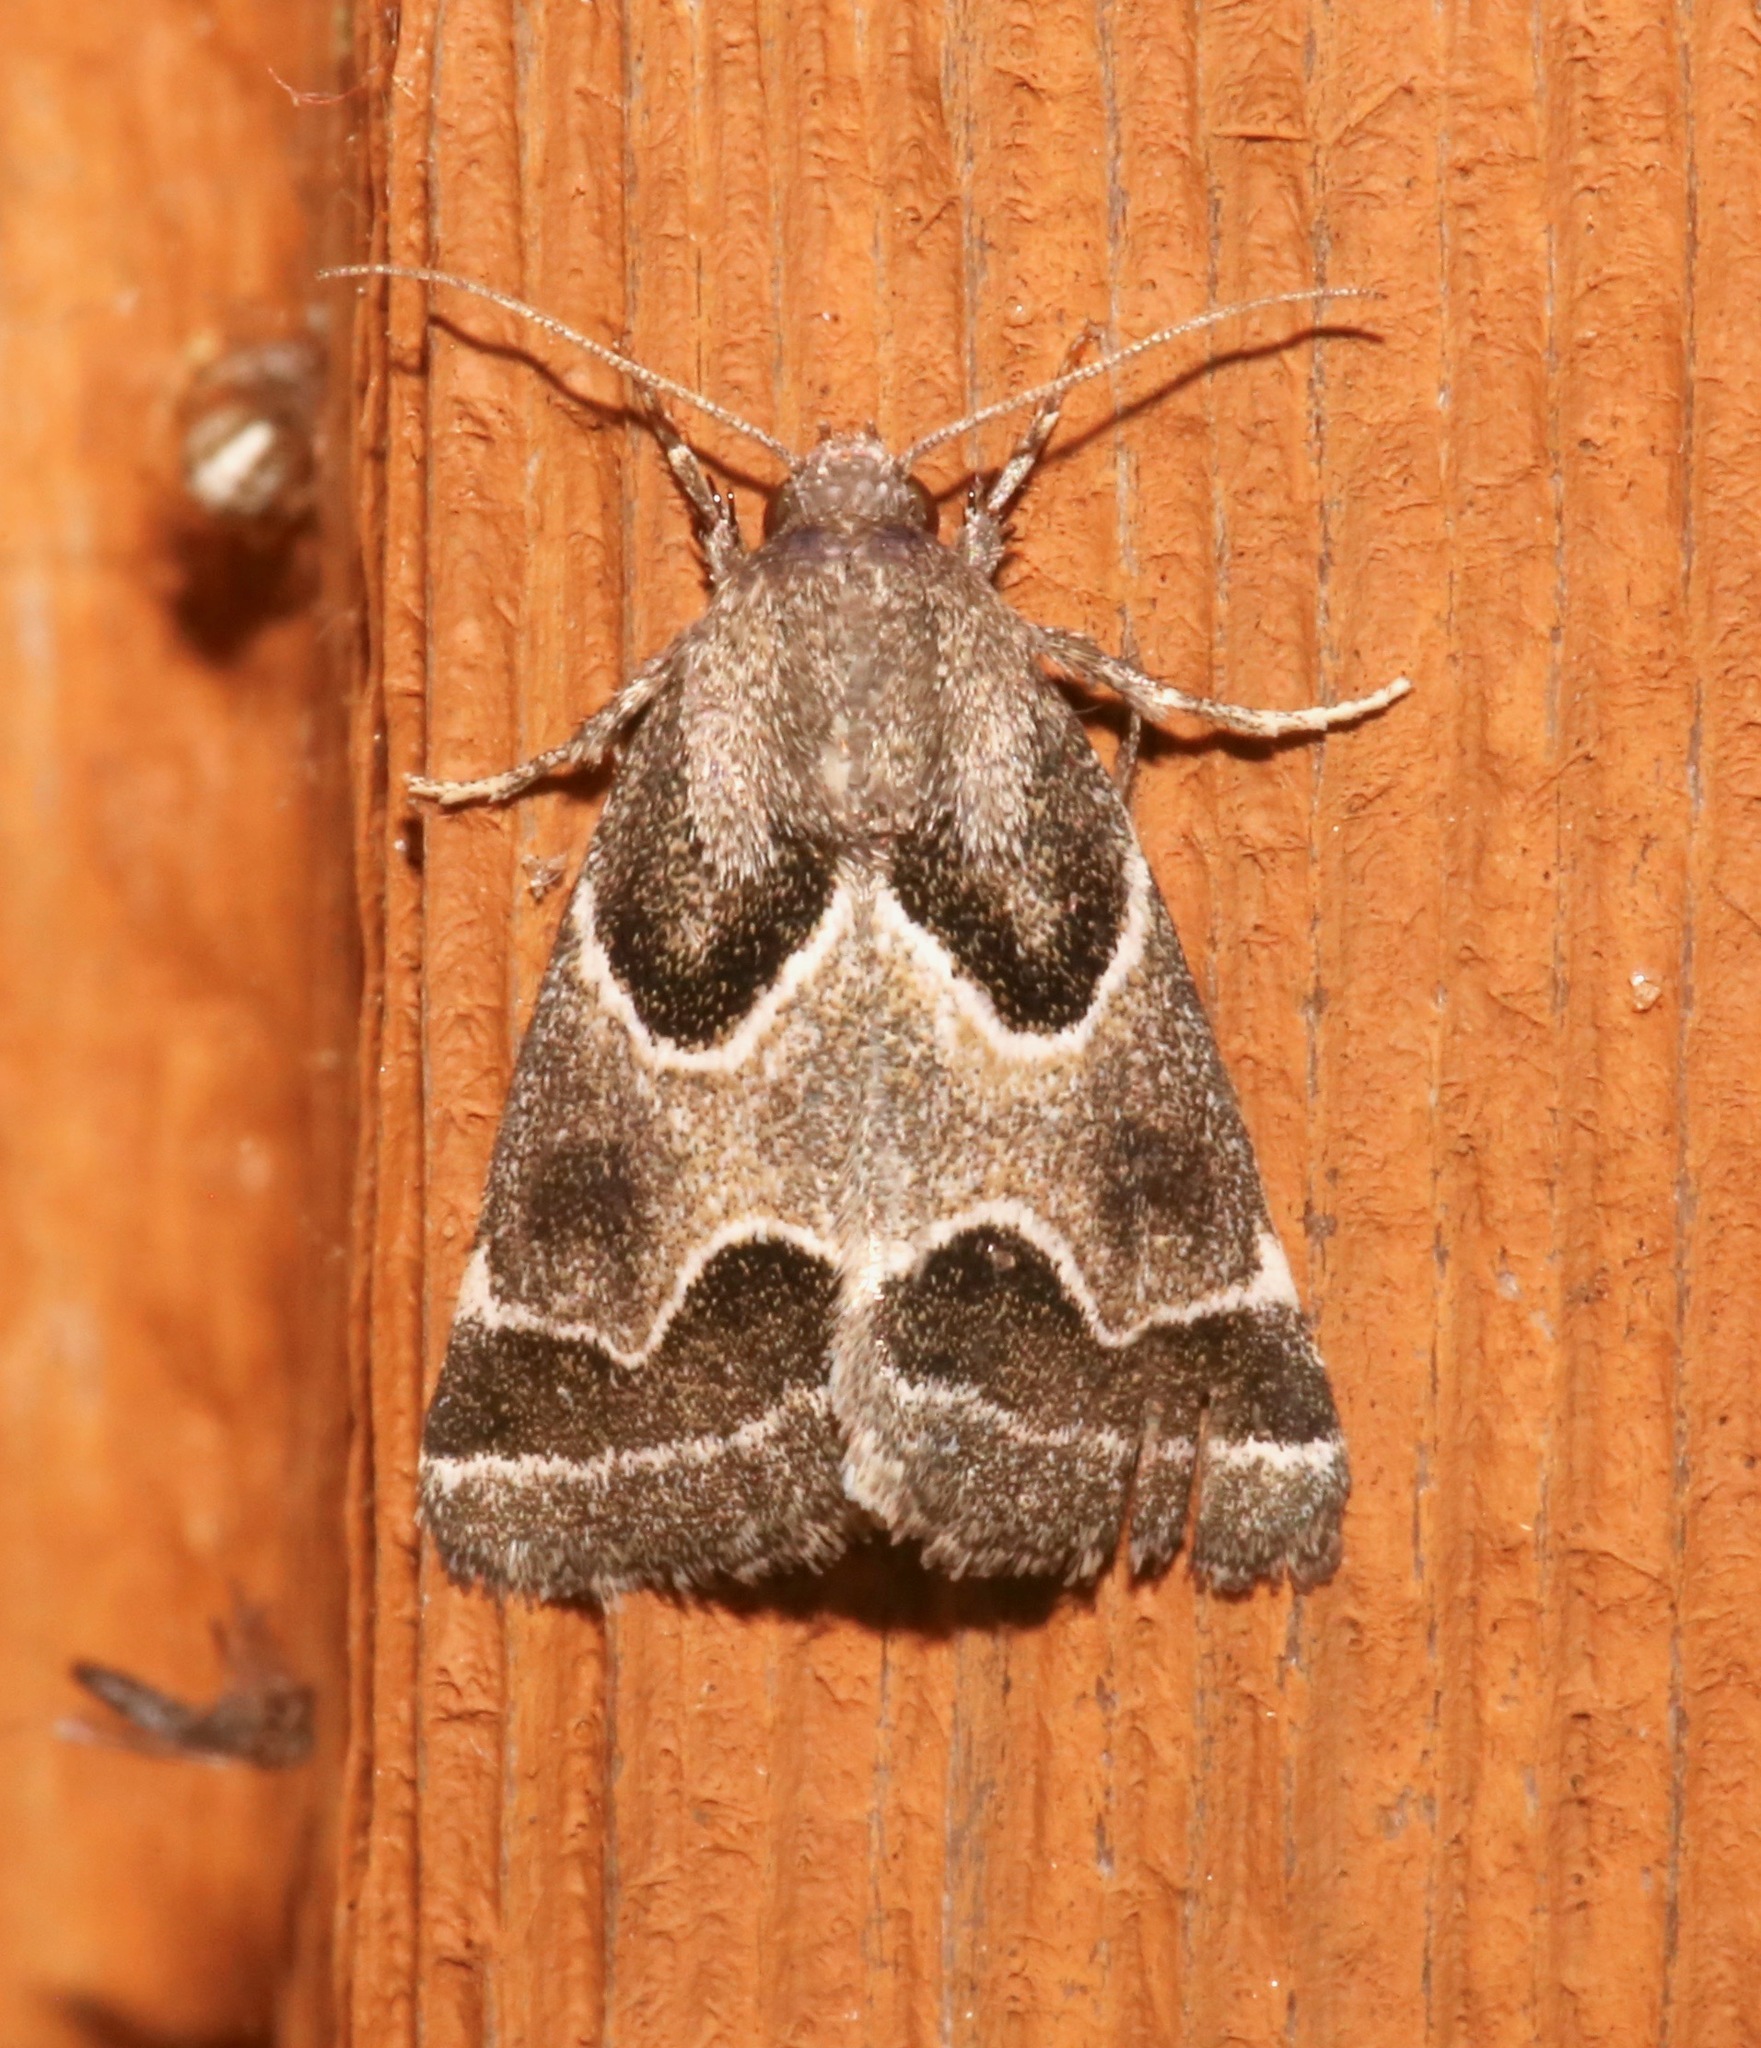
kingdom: Animalia
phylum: Arthropoda
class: Insecta
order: Lepidoptera
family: Noctuidae
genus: Schinia
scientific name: Schinia rivulosa
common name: Scarce meal-moth
